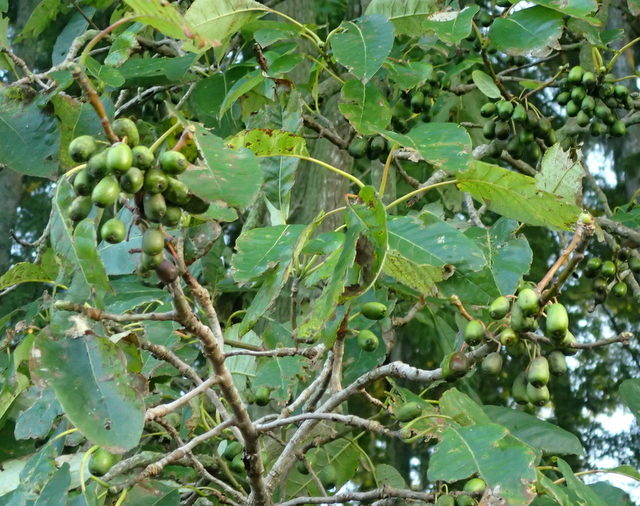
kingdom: Plantae
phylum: Tracheophyta
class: Magnoliopsida
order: Cornales
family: Nyssaceae
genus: Nyssa
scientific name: Nyssa ogeche
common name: Ogeechee tupelo
